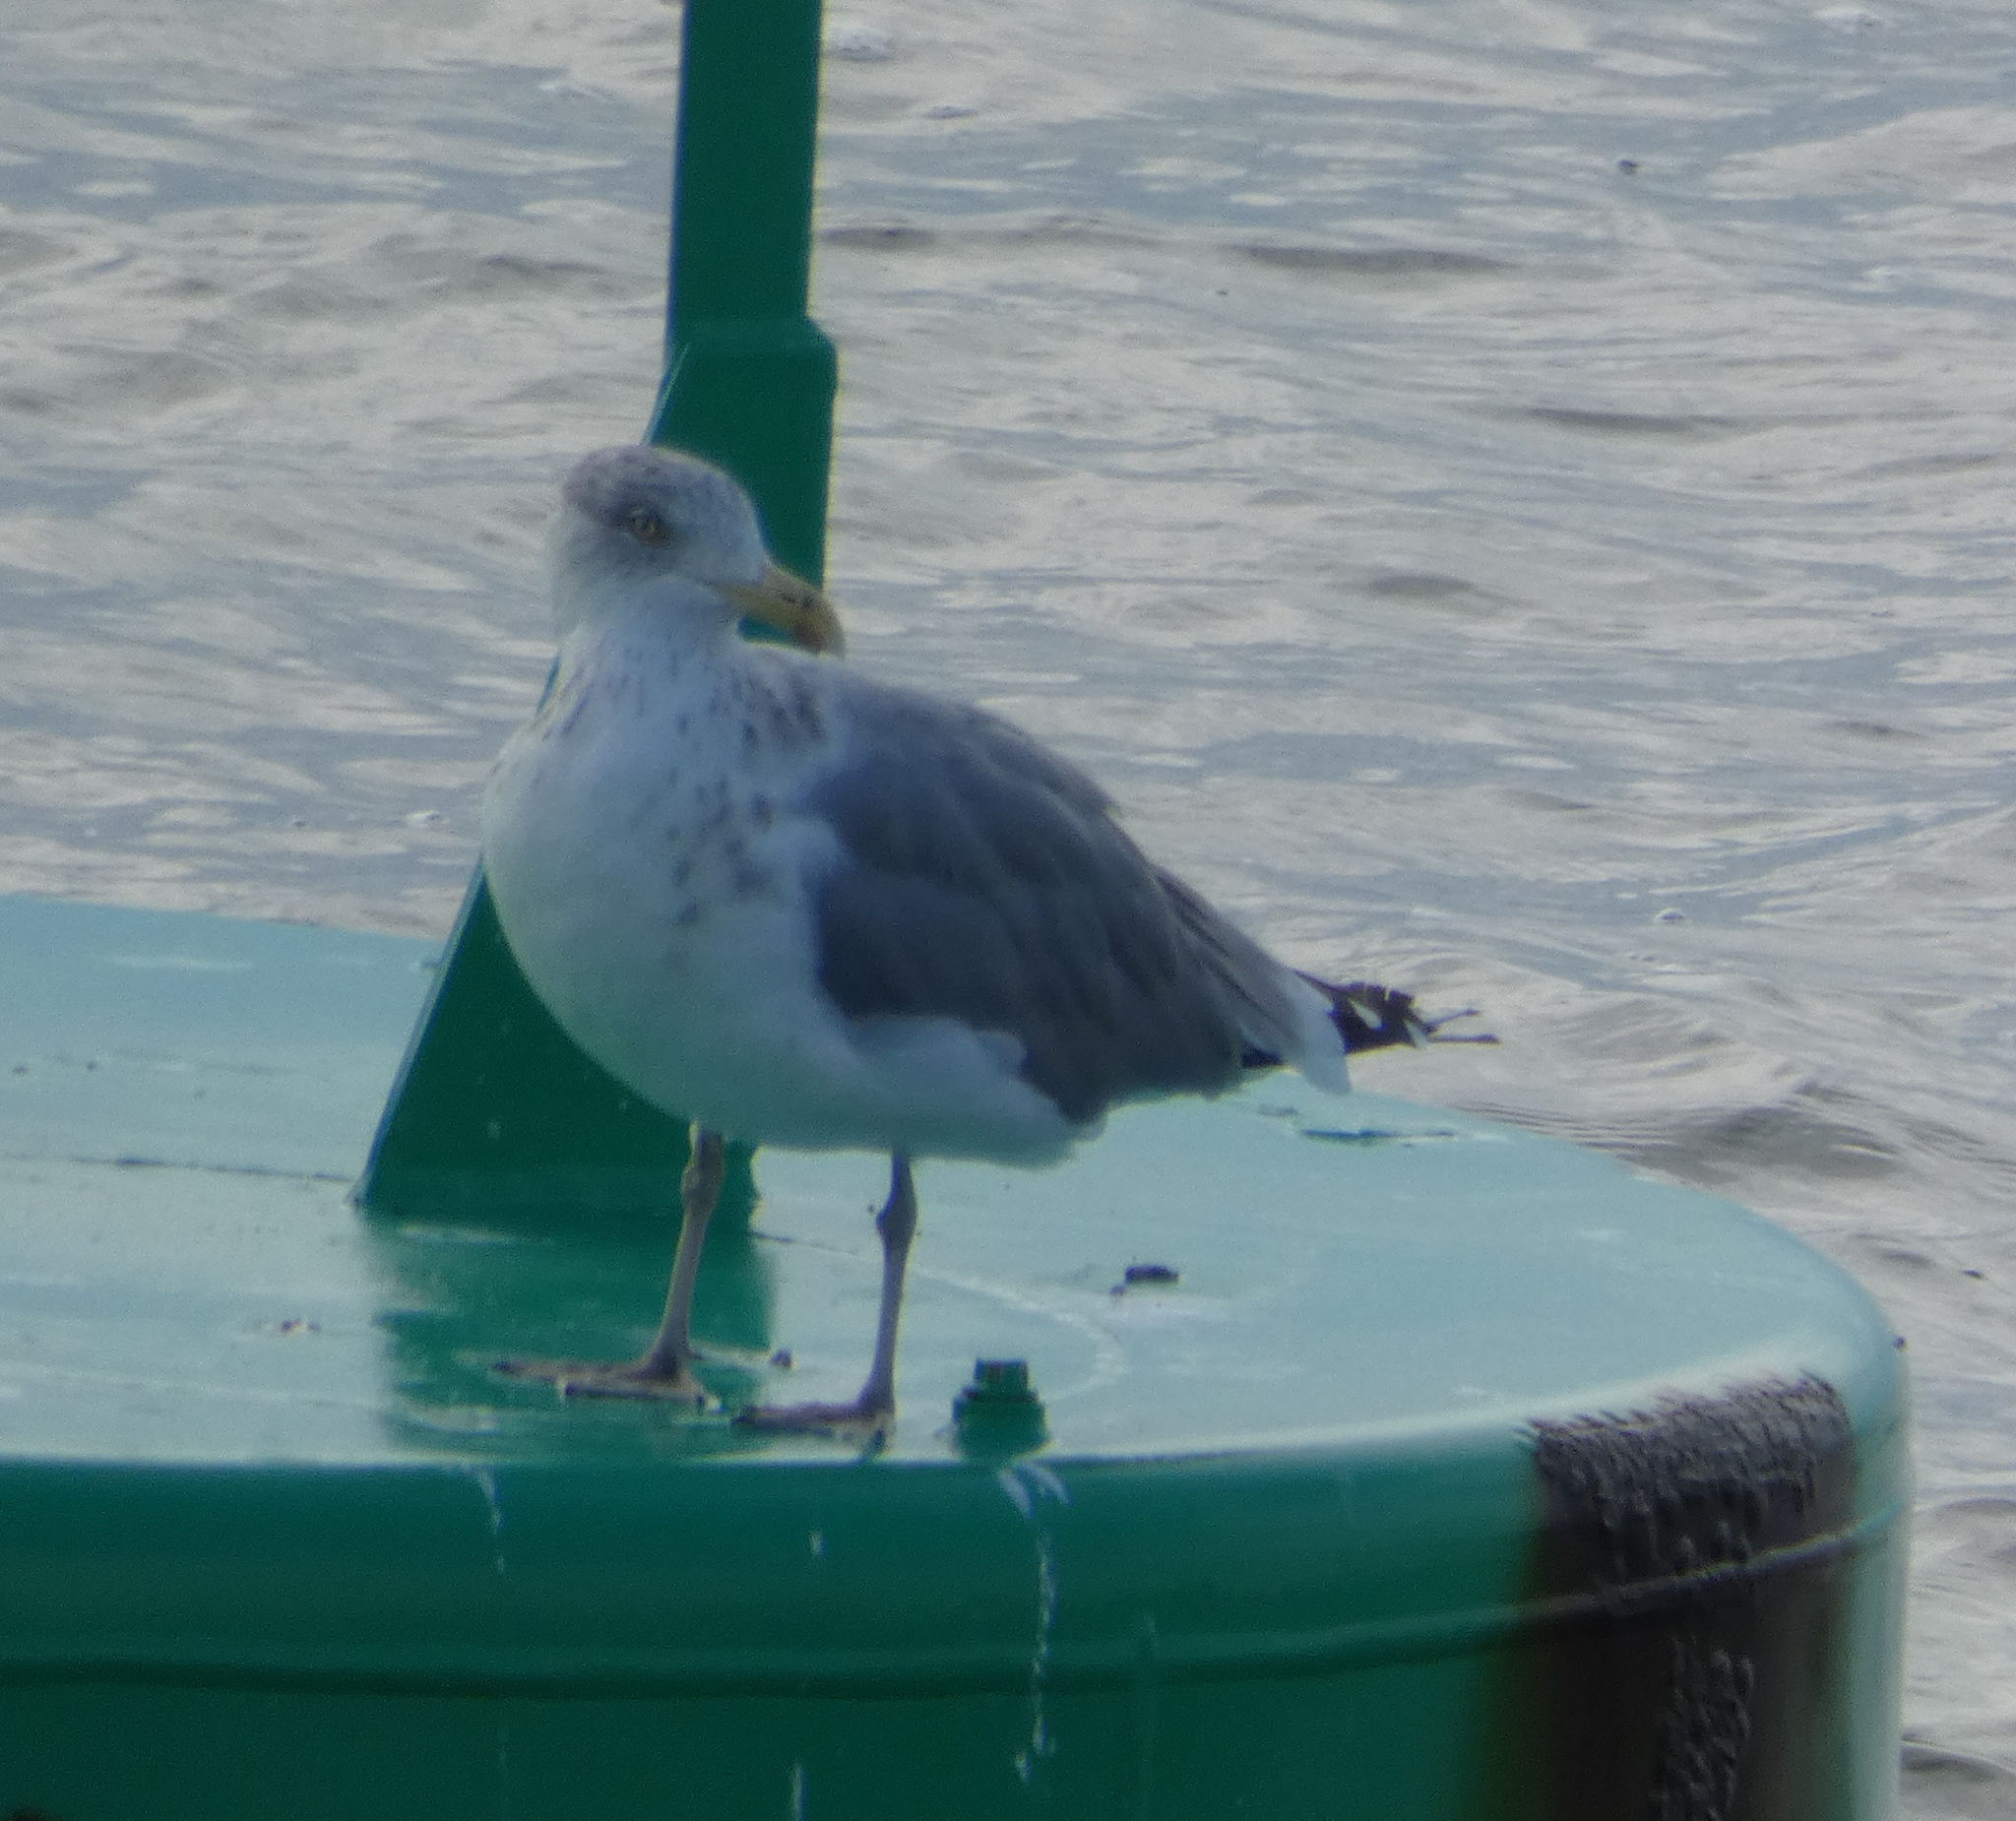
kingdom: Animalia
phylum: Chordata
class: Aves
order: Charadriiformes
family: Laridae
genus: Larus
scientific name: Larus argentatus
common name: Herring gull
